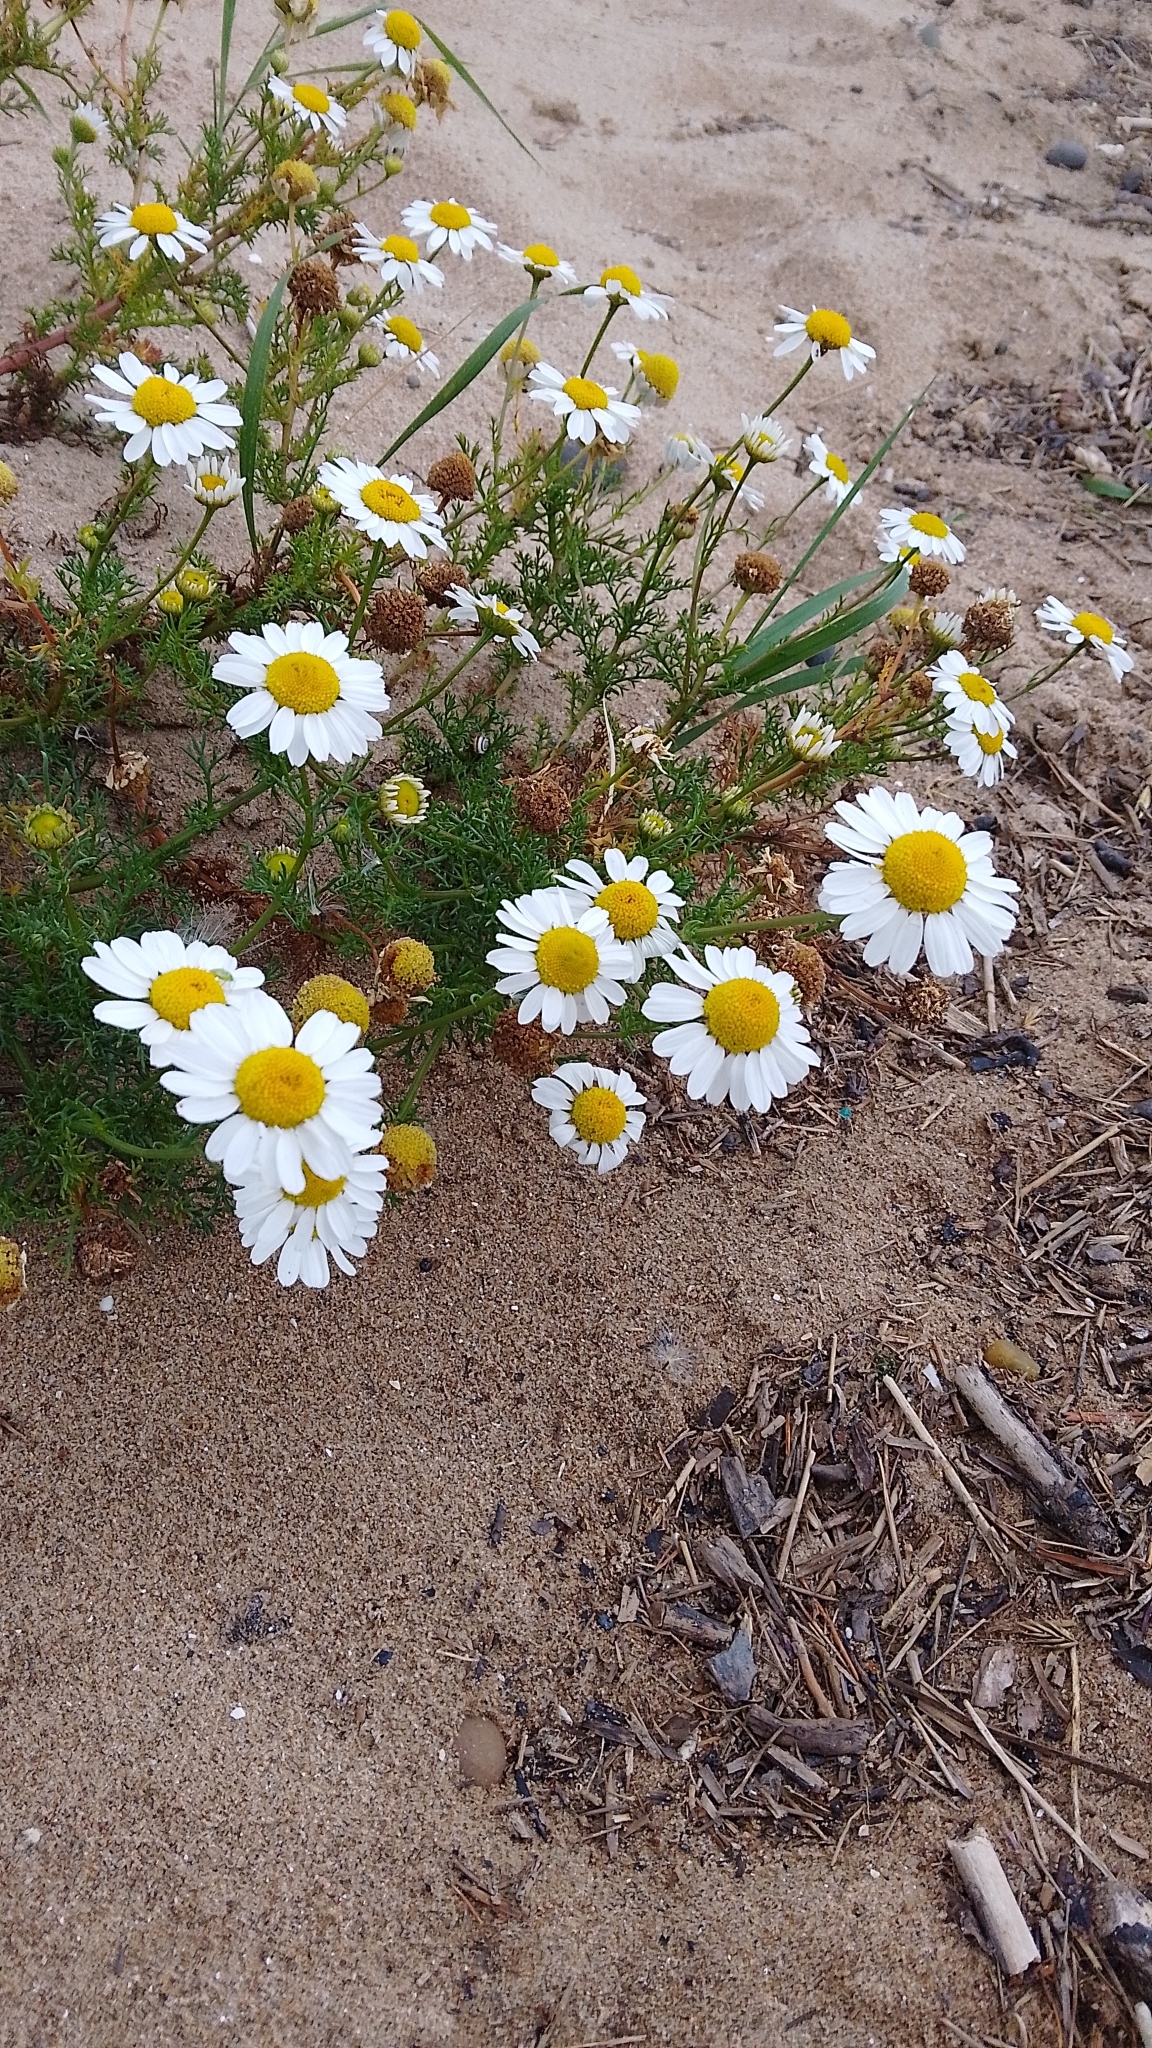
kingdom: Plantae
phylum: Tracheophyta
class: Magnoliopsida
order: Asterales
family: Asteraceae
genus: Tripleurospermum
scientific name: Tripleurospermum maritimum
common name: Sea mayweed
